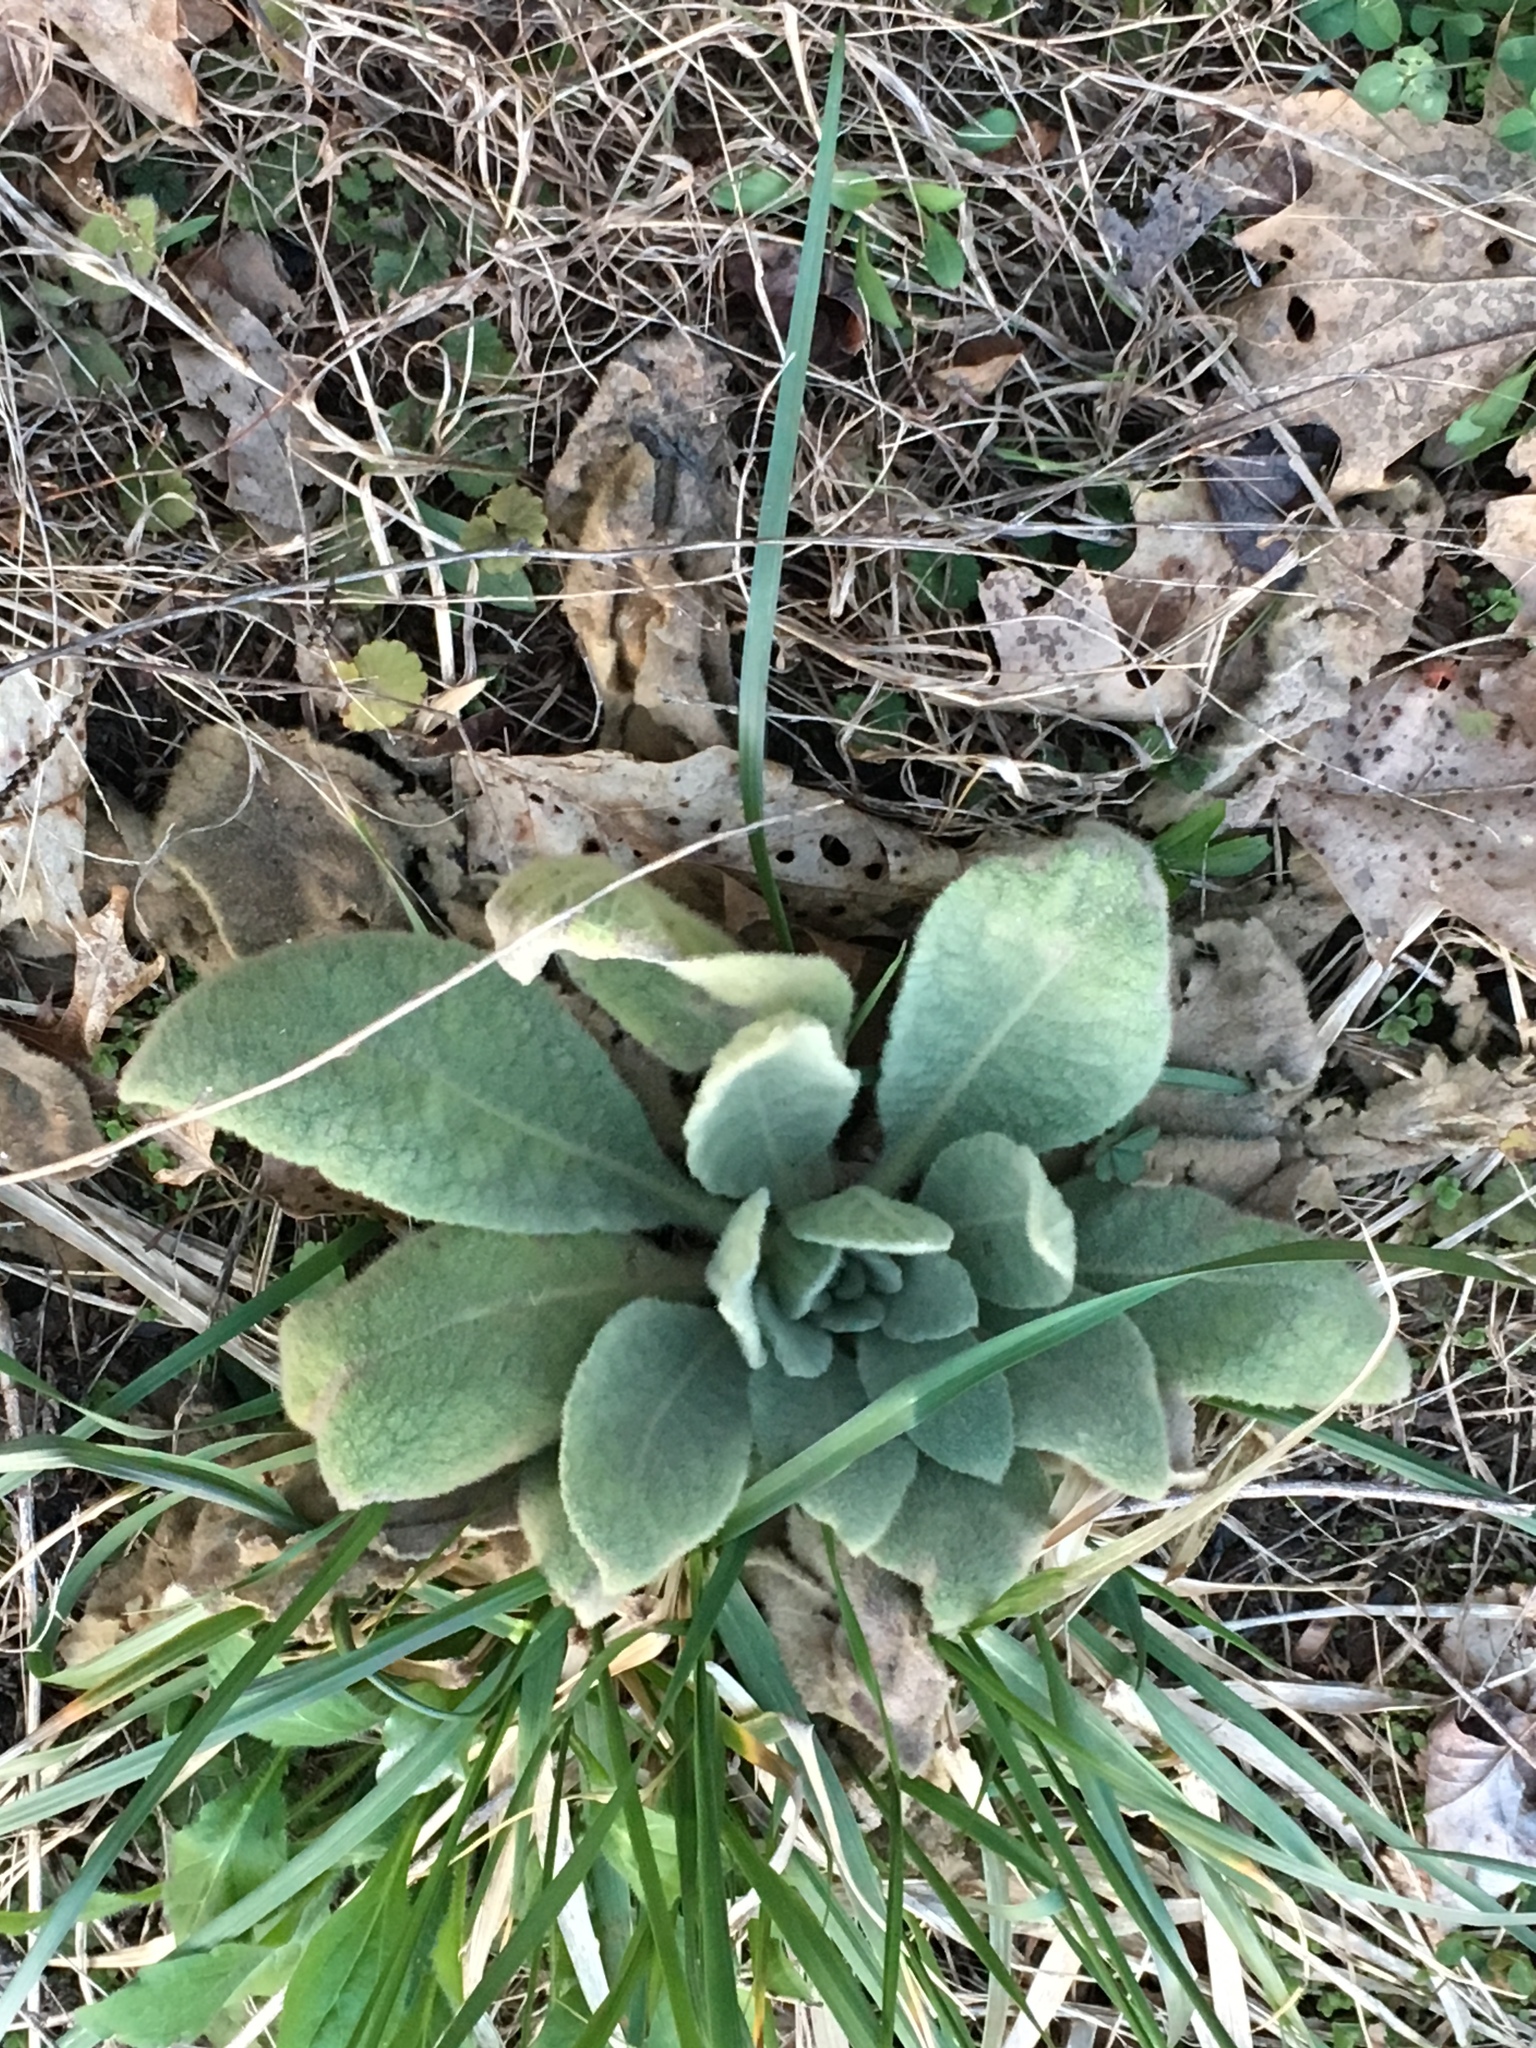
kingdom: Plantae
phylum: Tracheophyta
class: Magnoliopsida
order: Lamiales
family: Scrophulariaceae
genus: Verbascum
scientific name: Verbascum thapsus
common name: Common mullein
